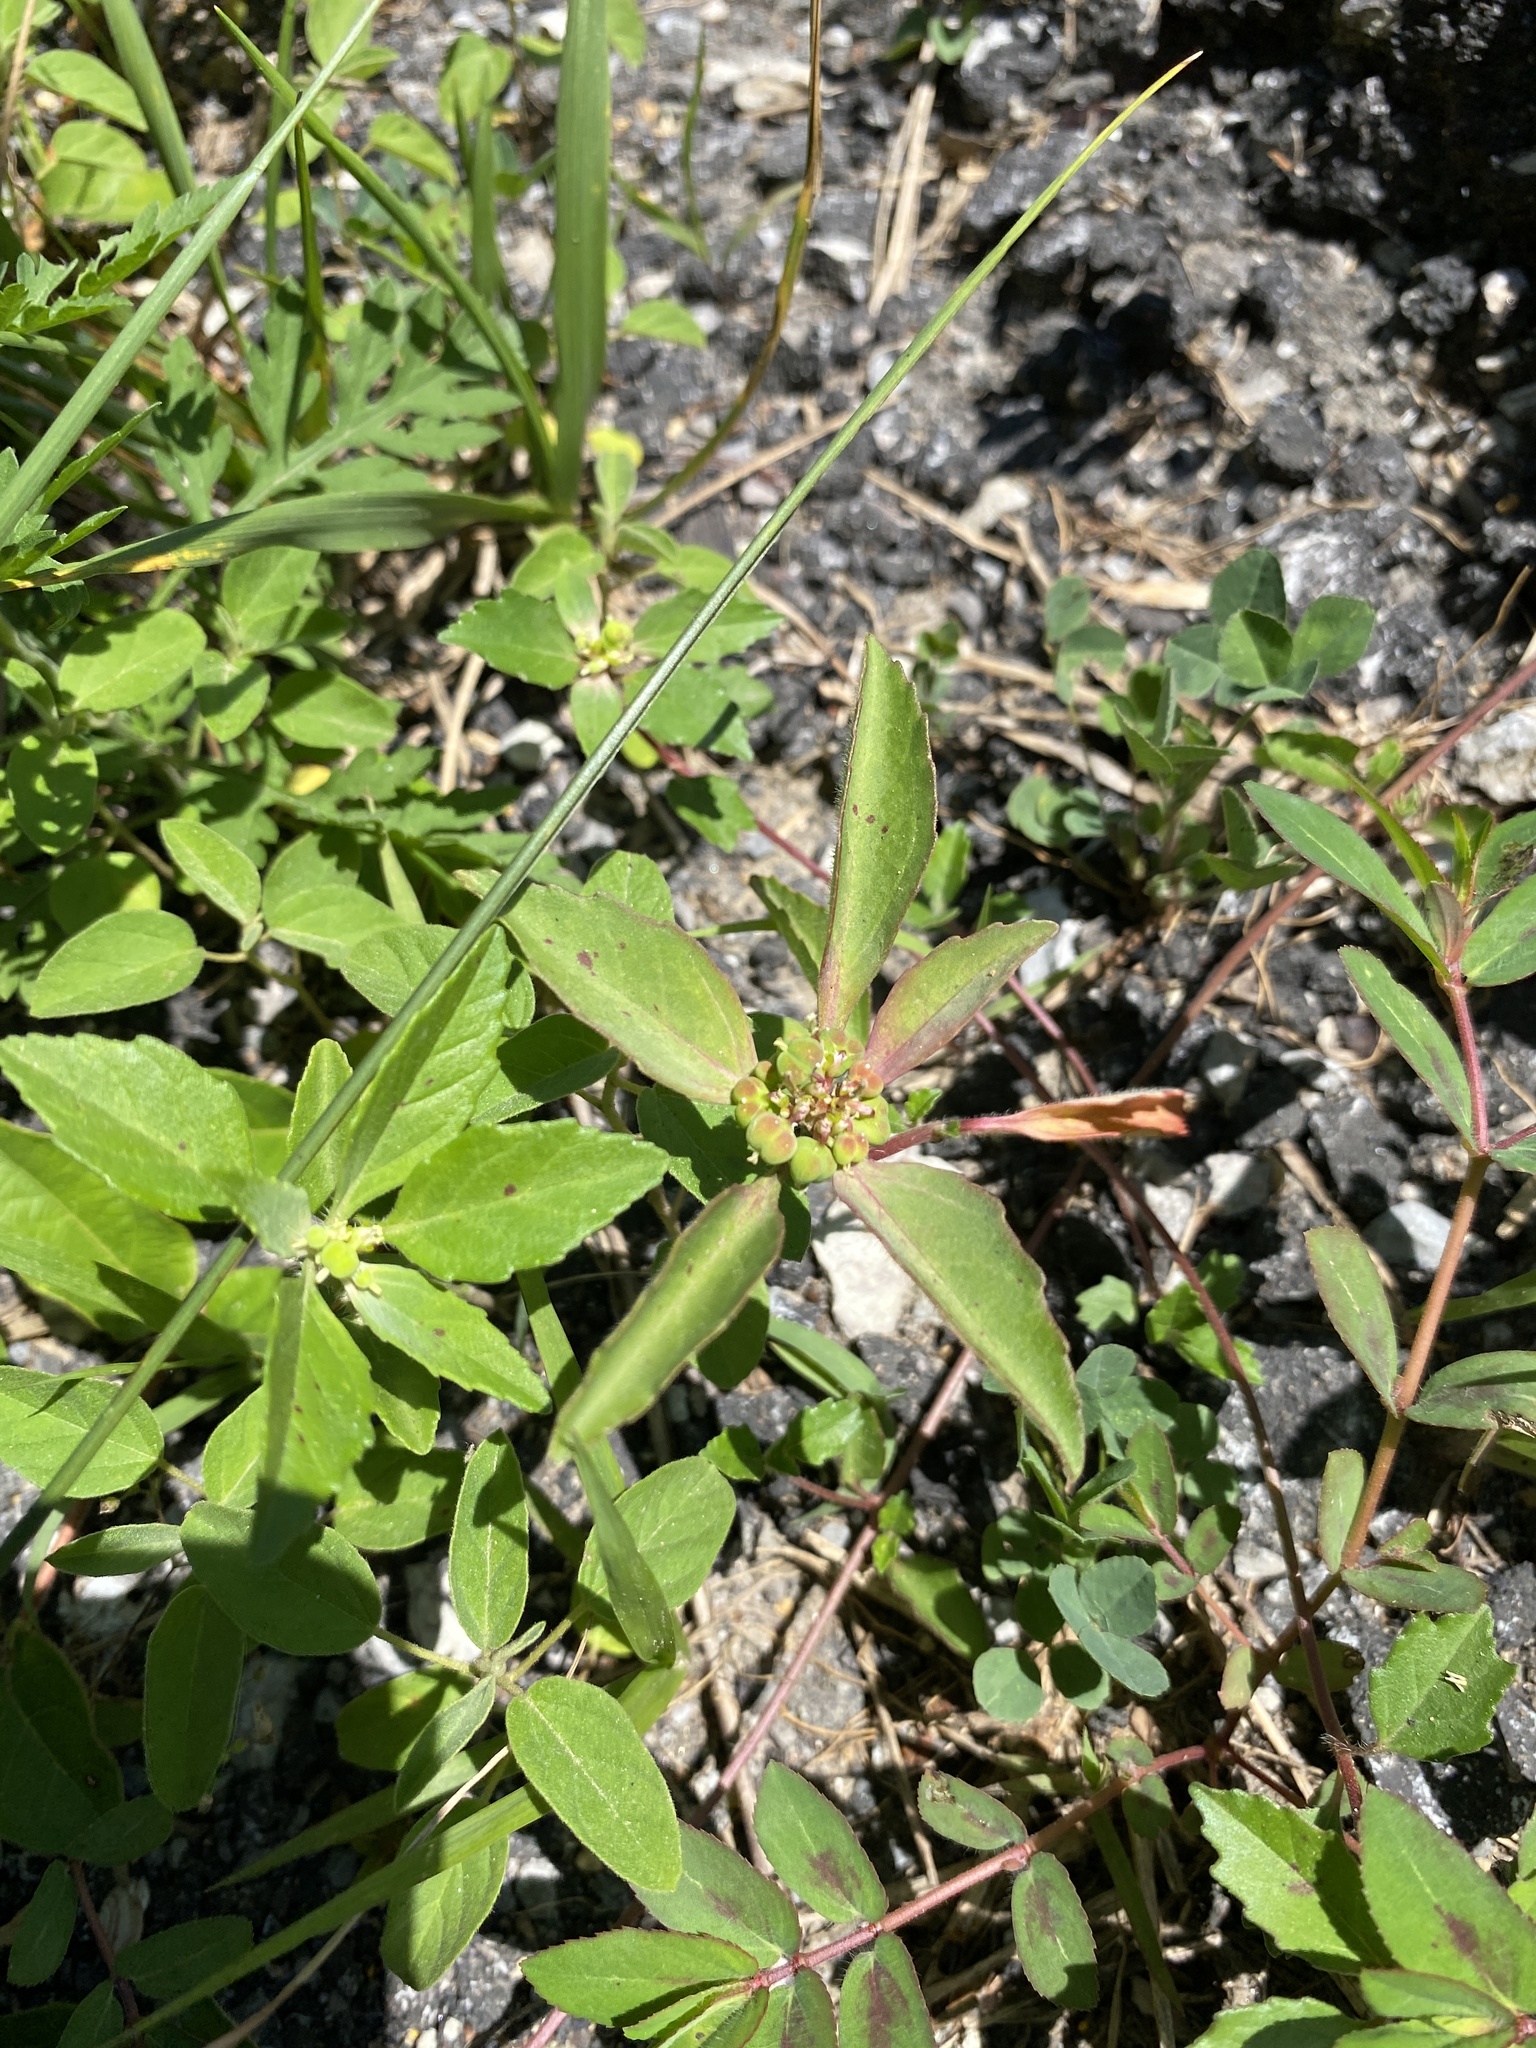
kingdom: Plantae
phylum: Tracheophyta
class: Magnoliopsida
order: Malpighiales
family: Euphorbiaceae
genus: Euphorbia
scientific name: Euphorbia dentata
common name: Dentate spurge
